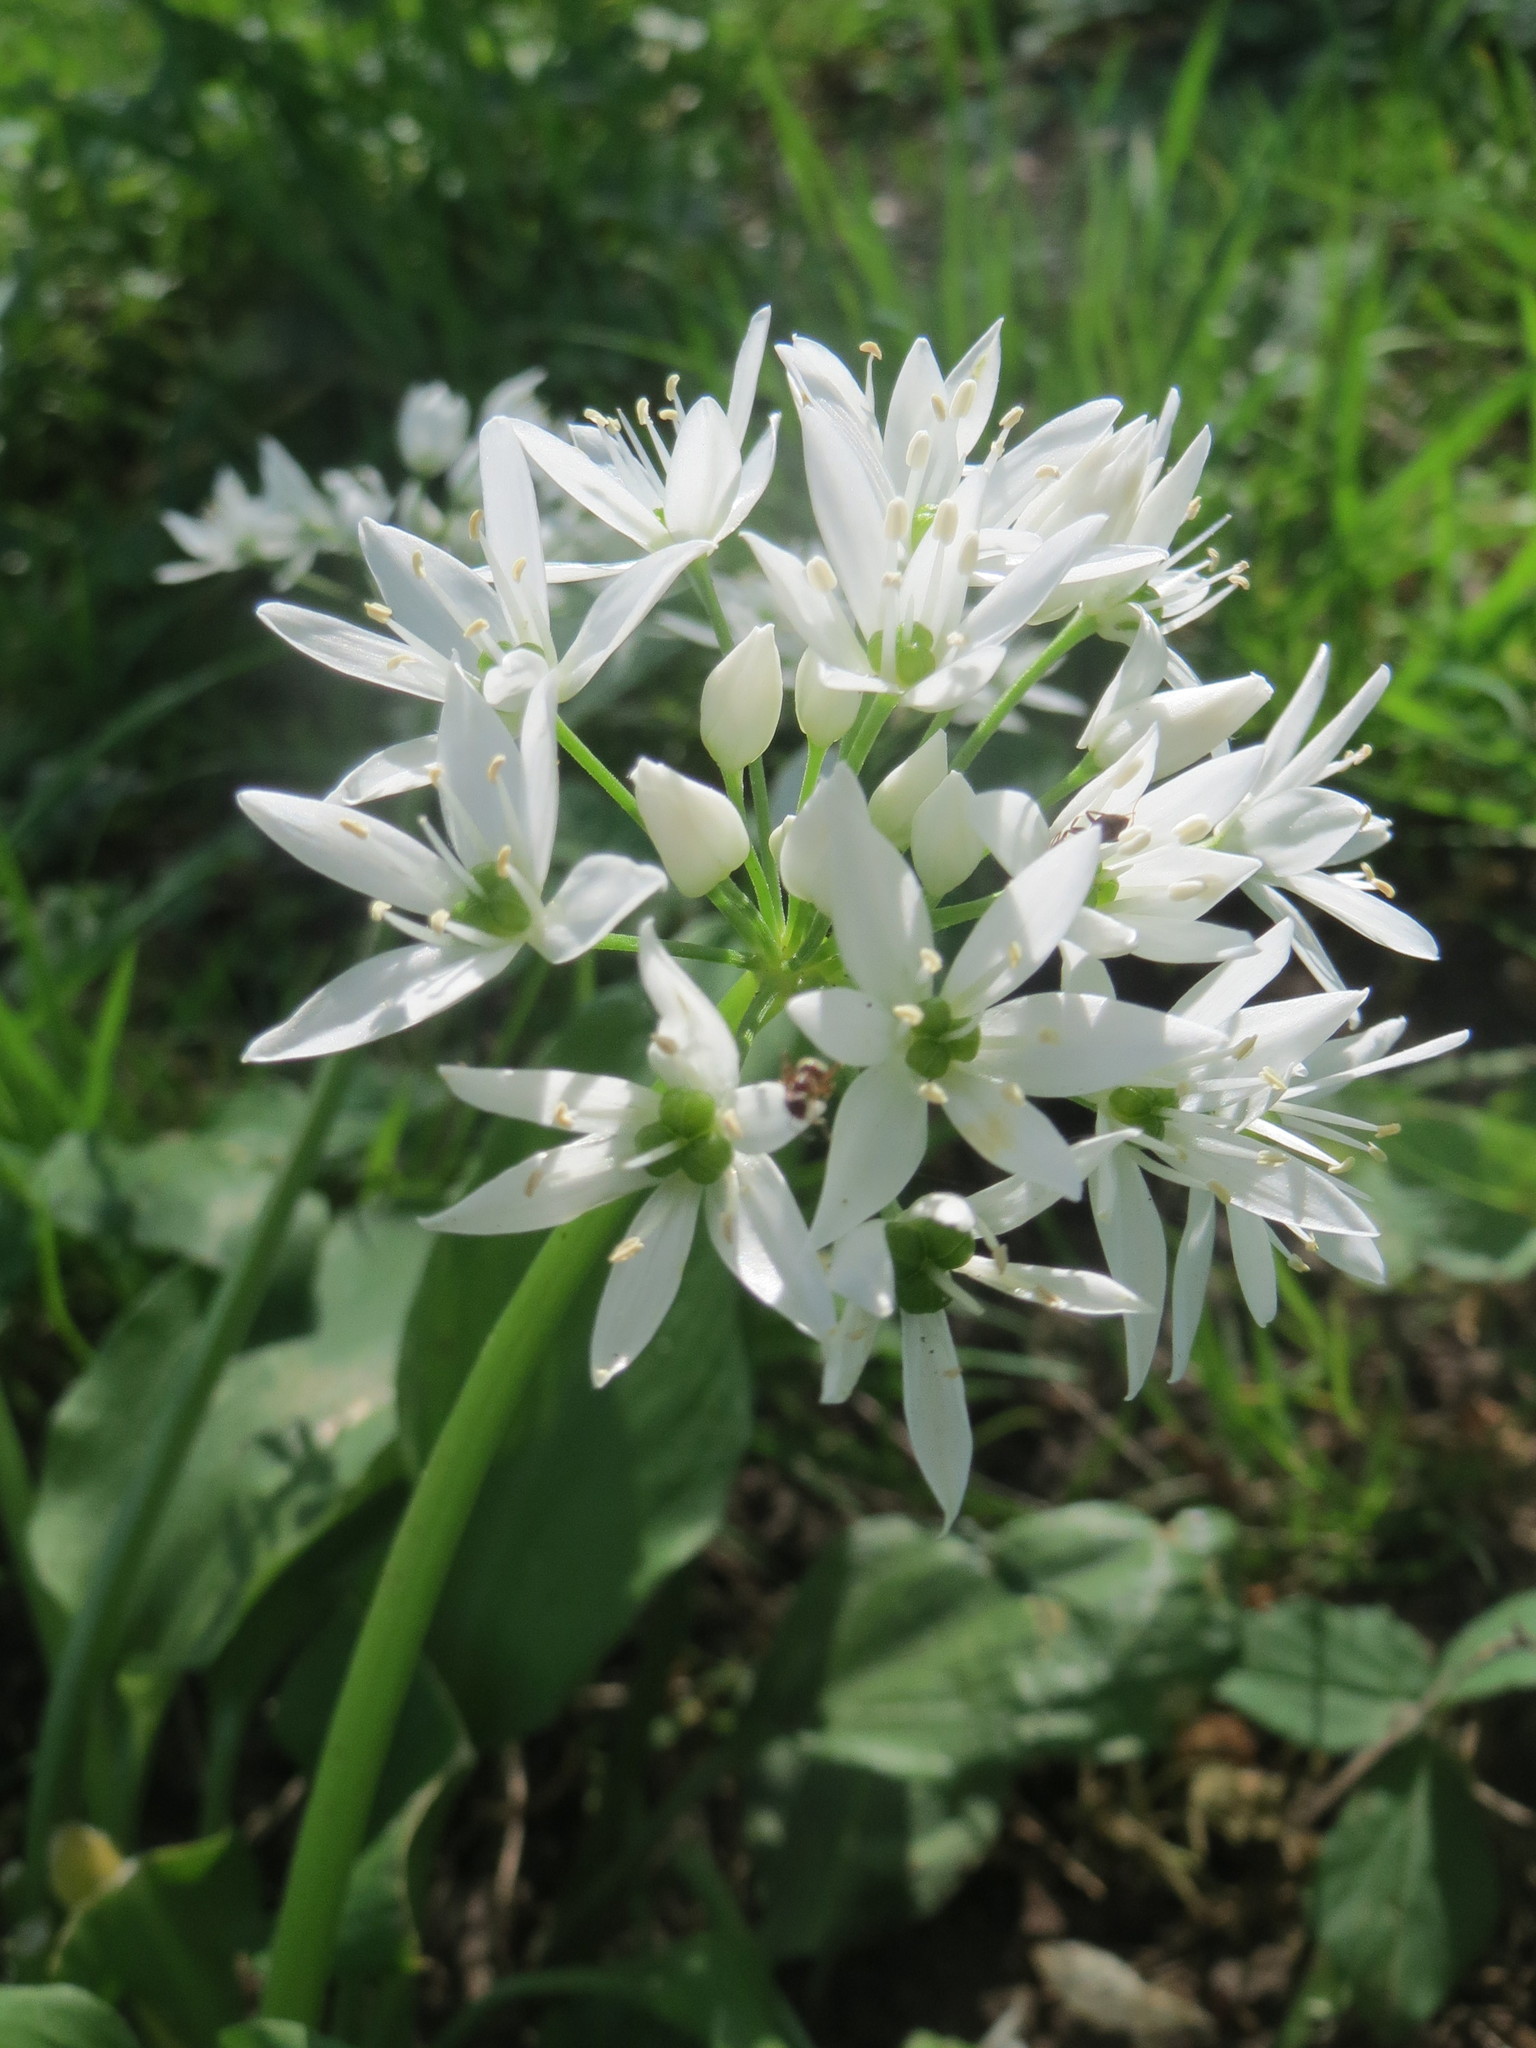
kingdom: Plantae
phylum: Tracheophyta
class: Liliopsida
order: Asparagales
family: Amaryllidaceae
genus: Allium
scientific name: Allium ursinum
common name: Ramsons
